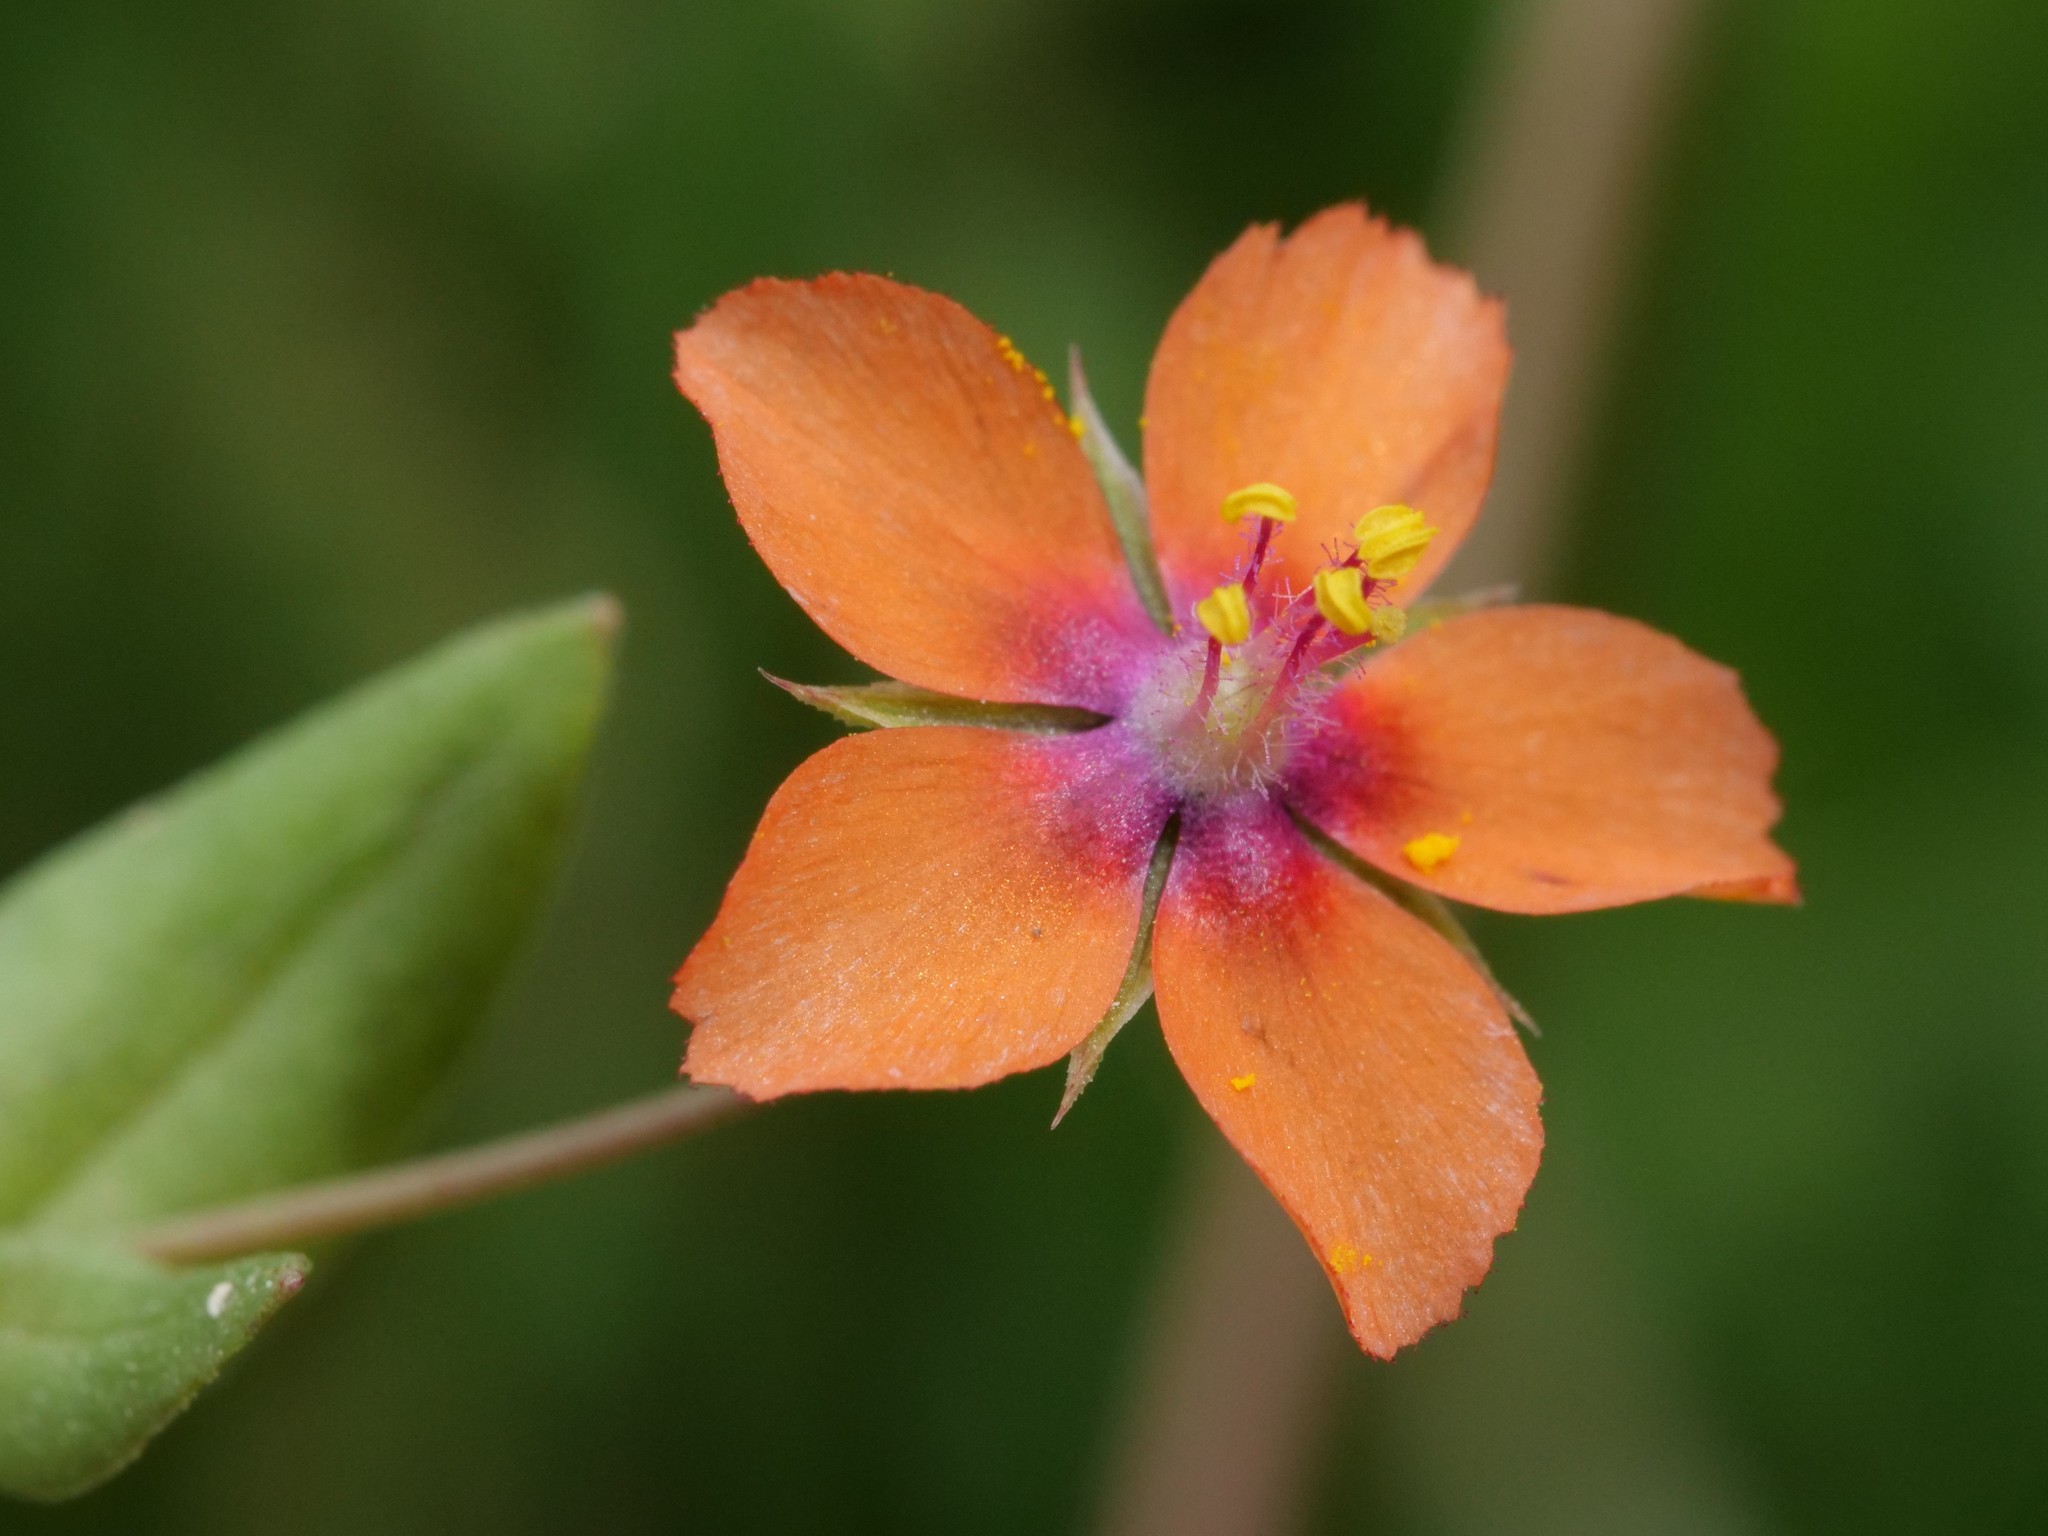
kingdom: Plantae
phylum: Tracheophyta
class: Magnoliopsida
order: Ericales
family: Primulaceae
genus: Lysimachia
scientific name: Lysimachia arvensis
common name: Scarlet pimpernel
